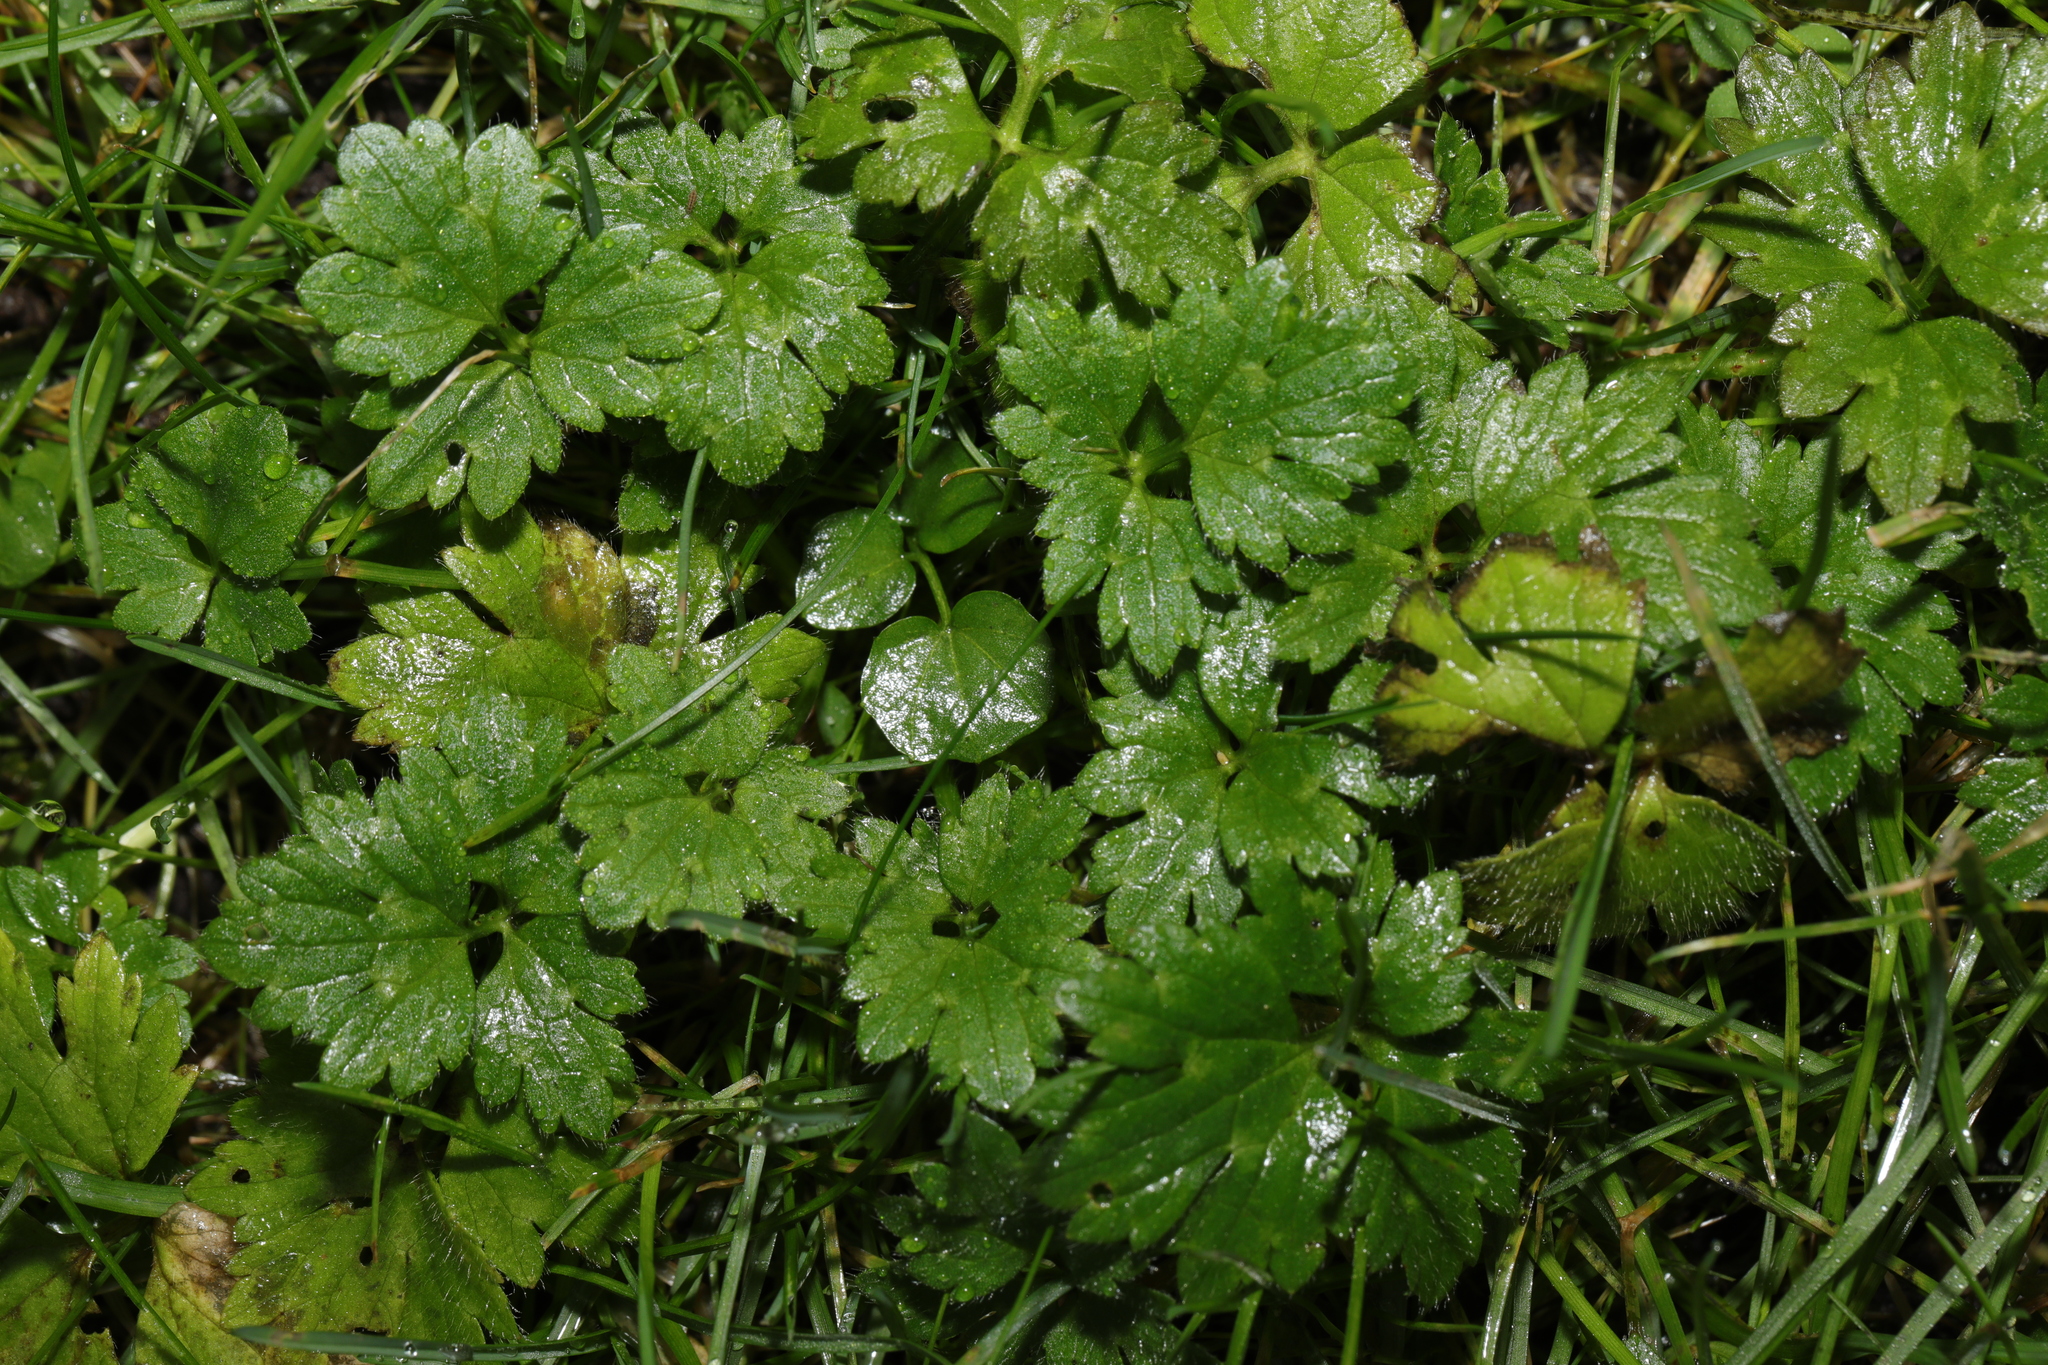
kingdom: Plantae
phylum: Tracheophyta
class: Magnoliopsida
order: Ranunculales
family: Ranunculaceae
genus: Ranunculus
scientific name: Ranunculus repens
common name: Creeping buttercup
